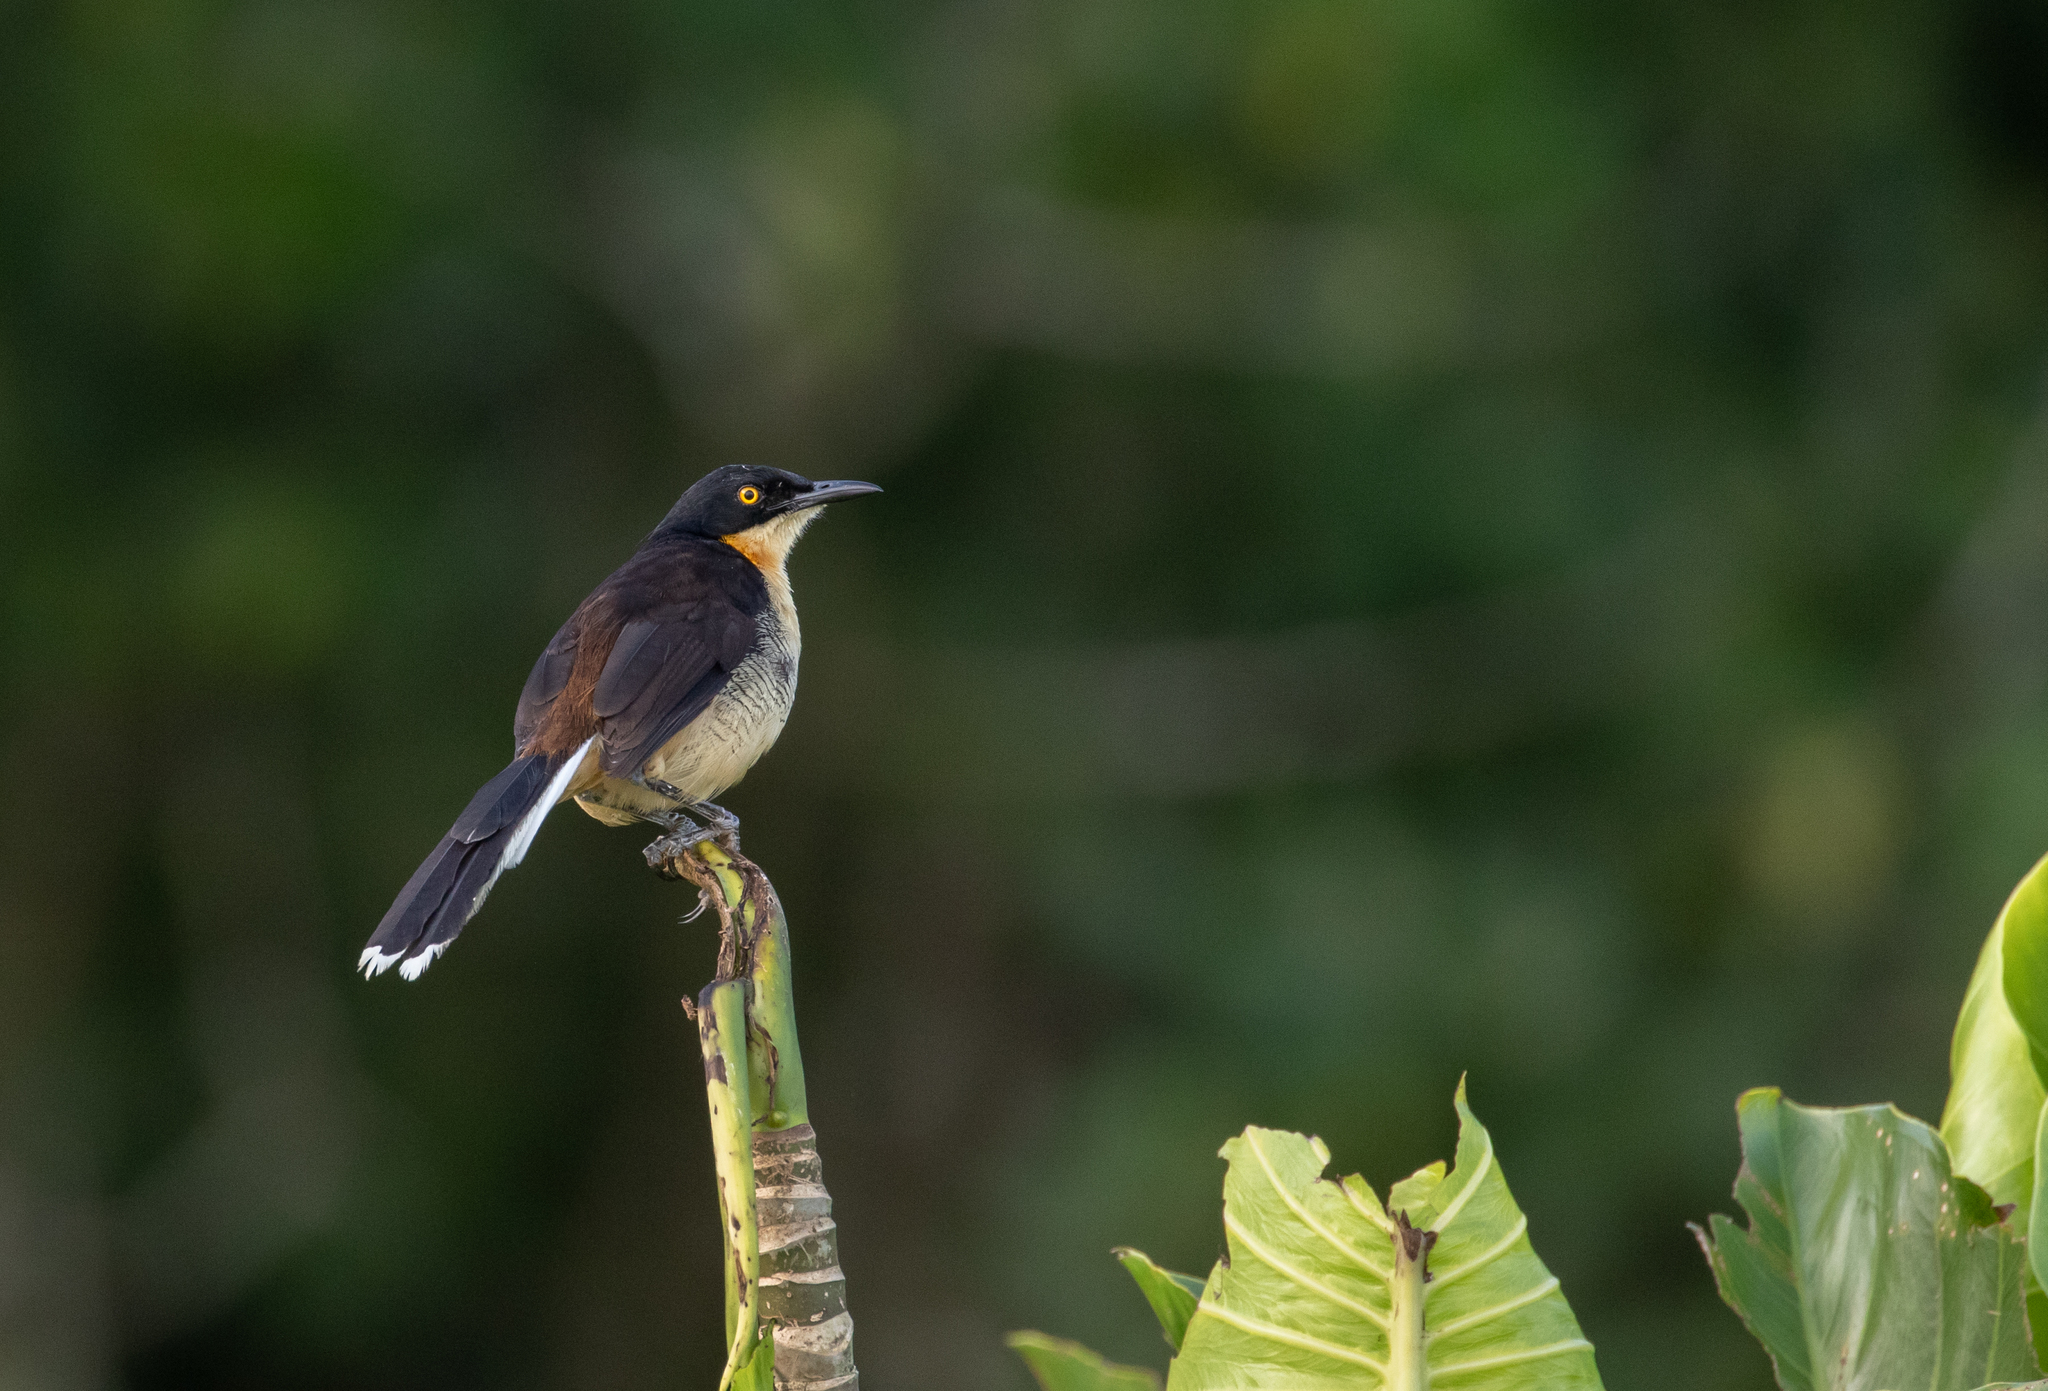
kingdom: Animalia
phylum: Chordata
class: Aves
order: Passeriformes
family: Donacobiidae
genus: Donacobius
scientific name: Donacobius atricapilla
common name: Black-capped donacobius
